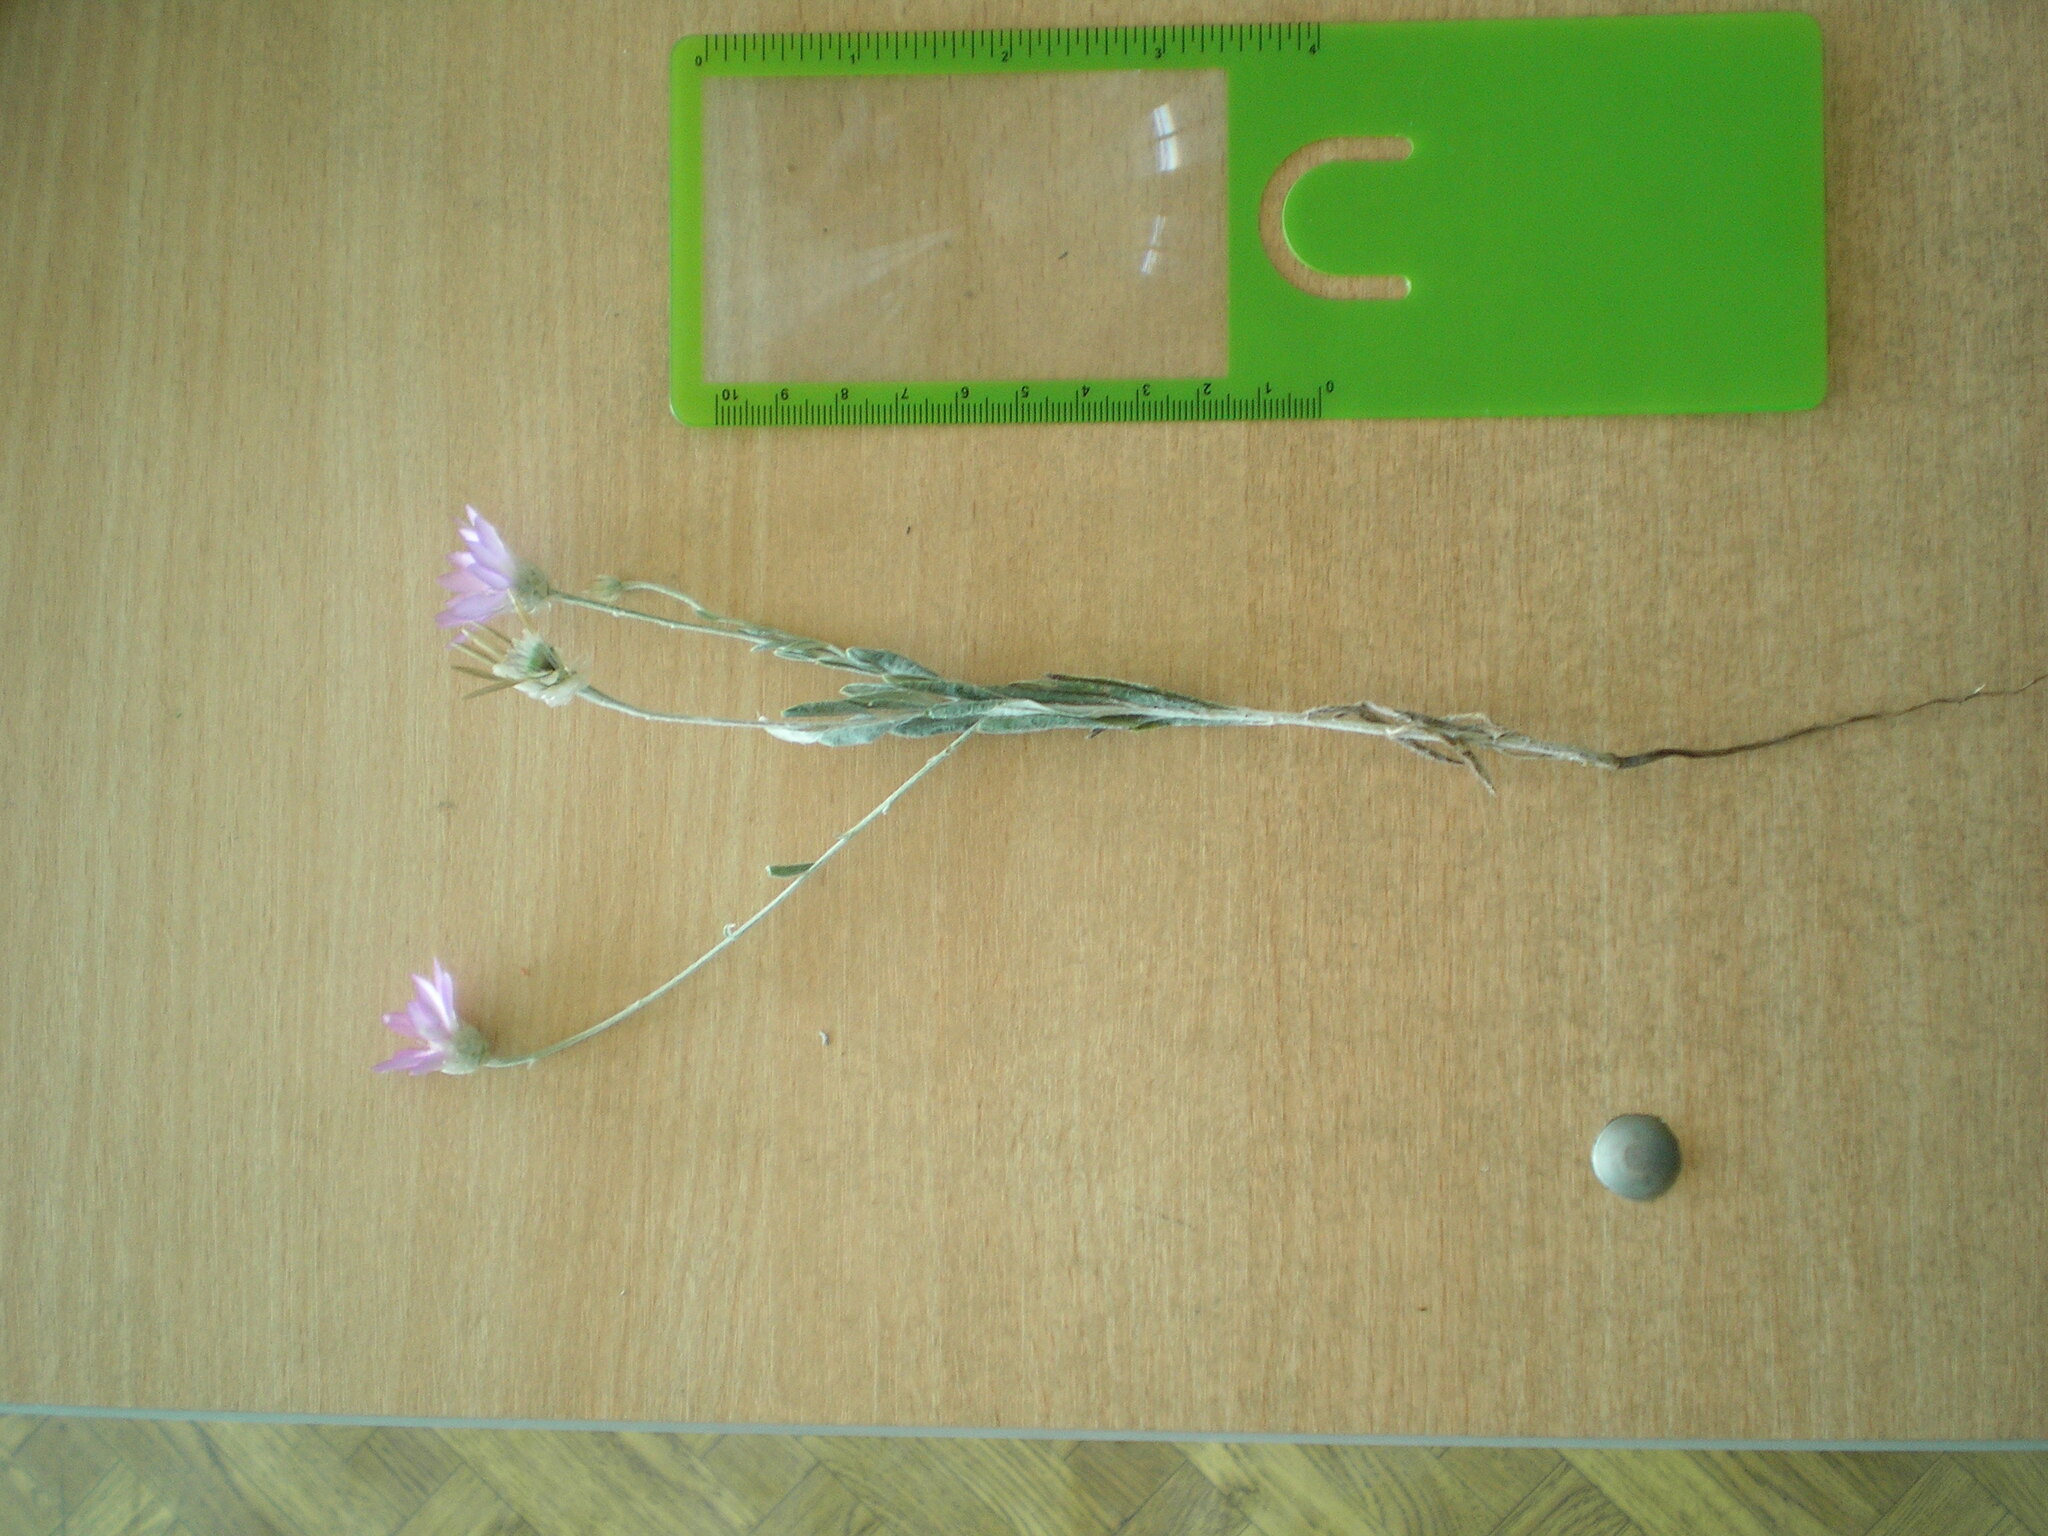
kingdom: Plantae
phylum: Tracheophyta
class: Magnoliopsida
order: Asterales
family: Asteraceae
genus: Xeranthemum
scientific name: Xeranthemum annuum
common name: Immortelle
